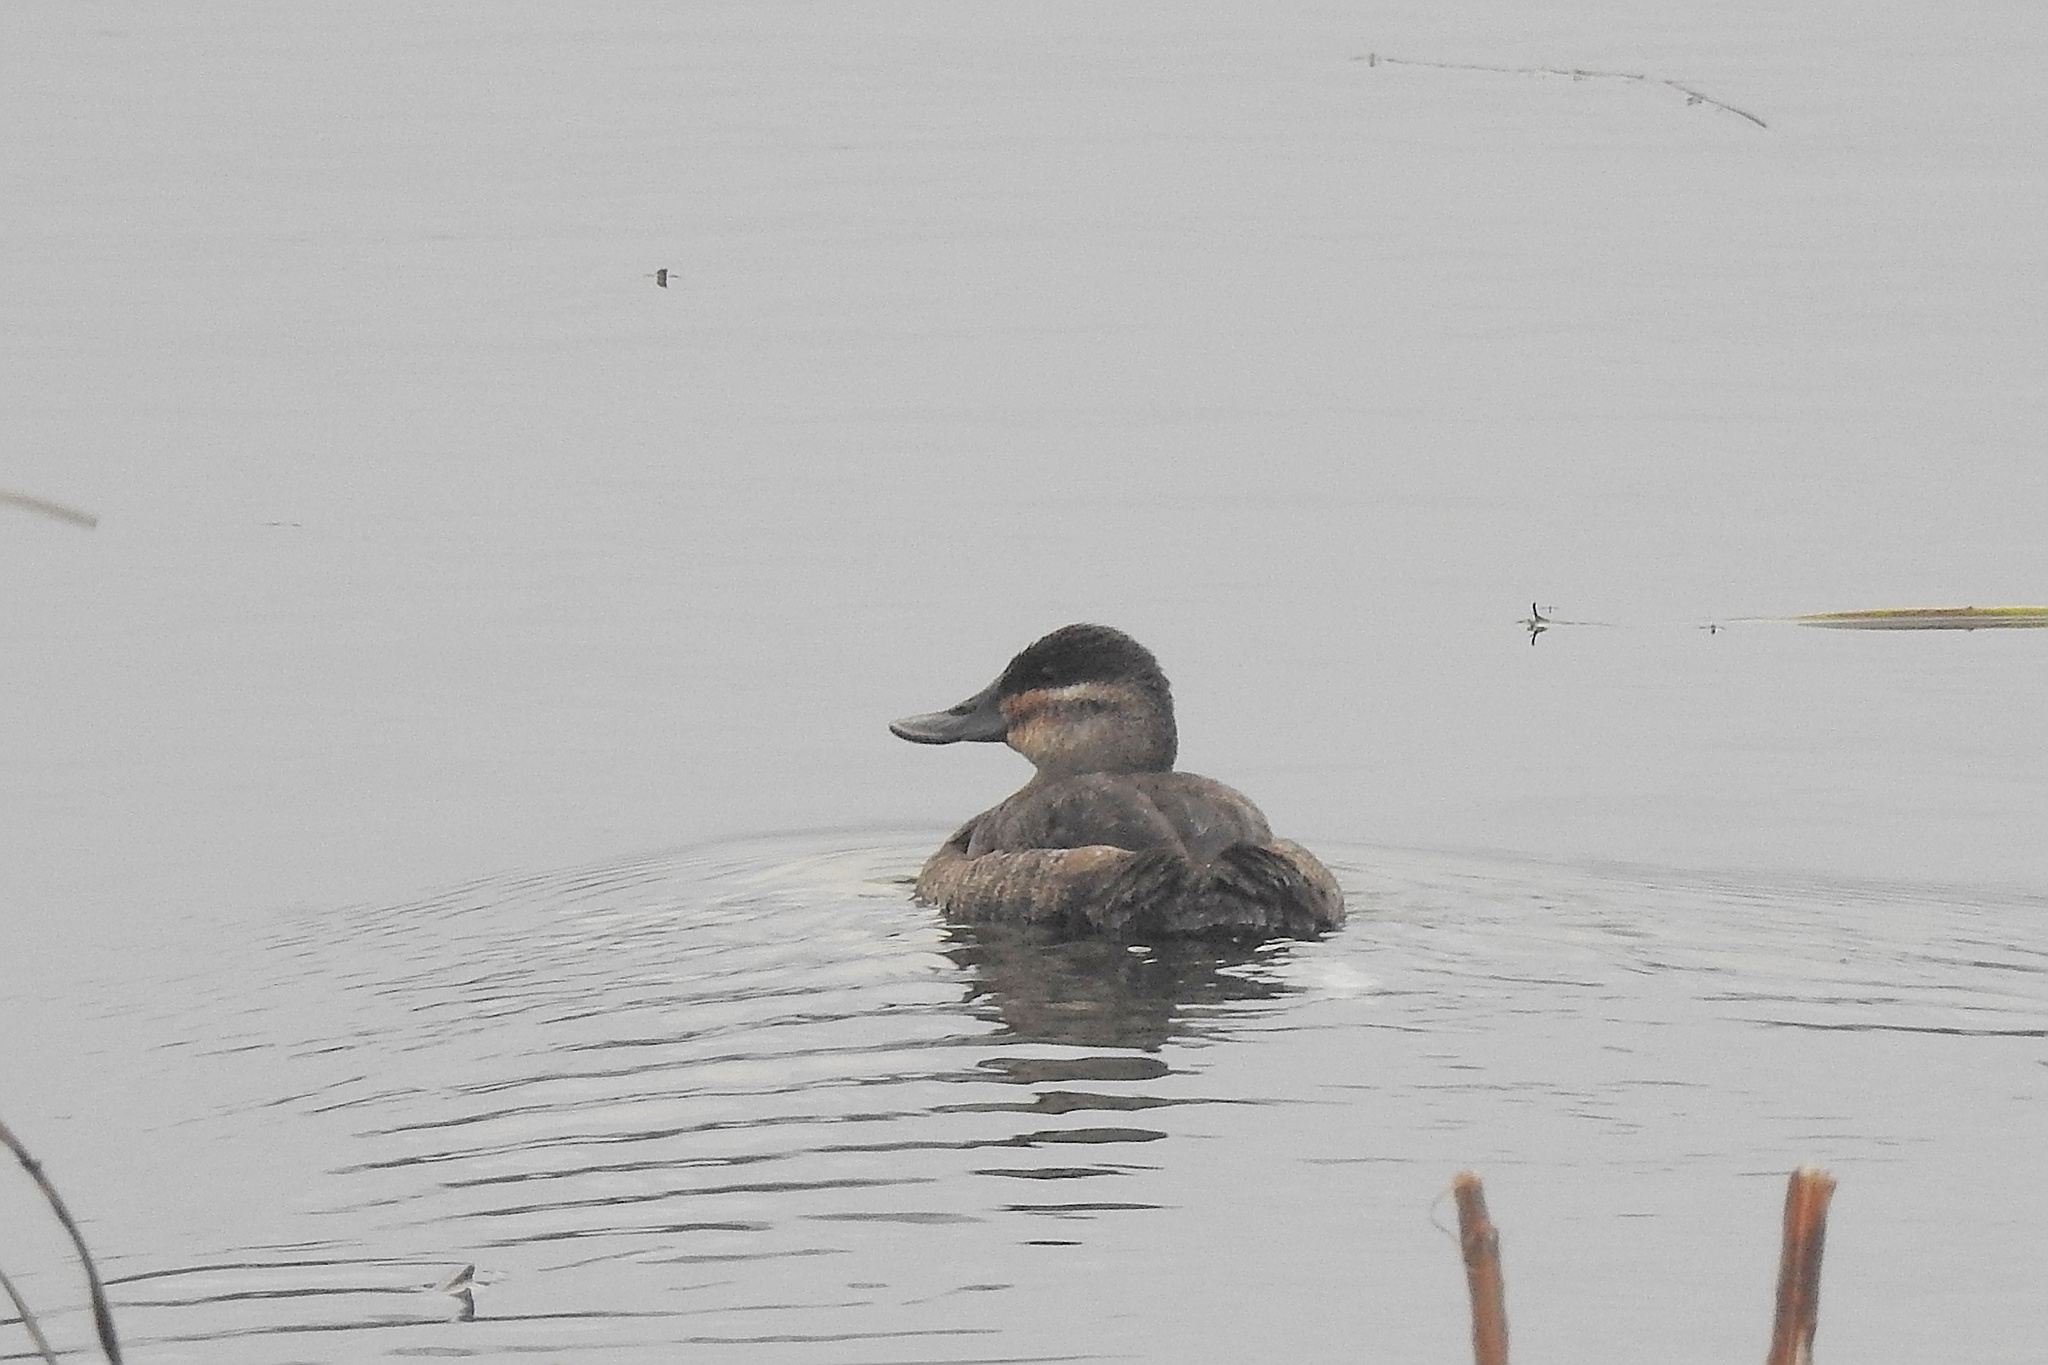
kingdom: Animalia
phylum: Chordata
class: Aves
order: Anseriformes
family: Anatidae
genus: Oxyura
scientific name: Oxyura jamaicensis
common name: Ruddy duck
